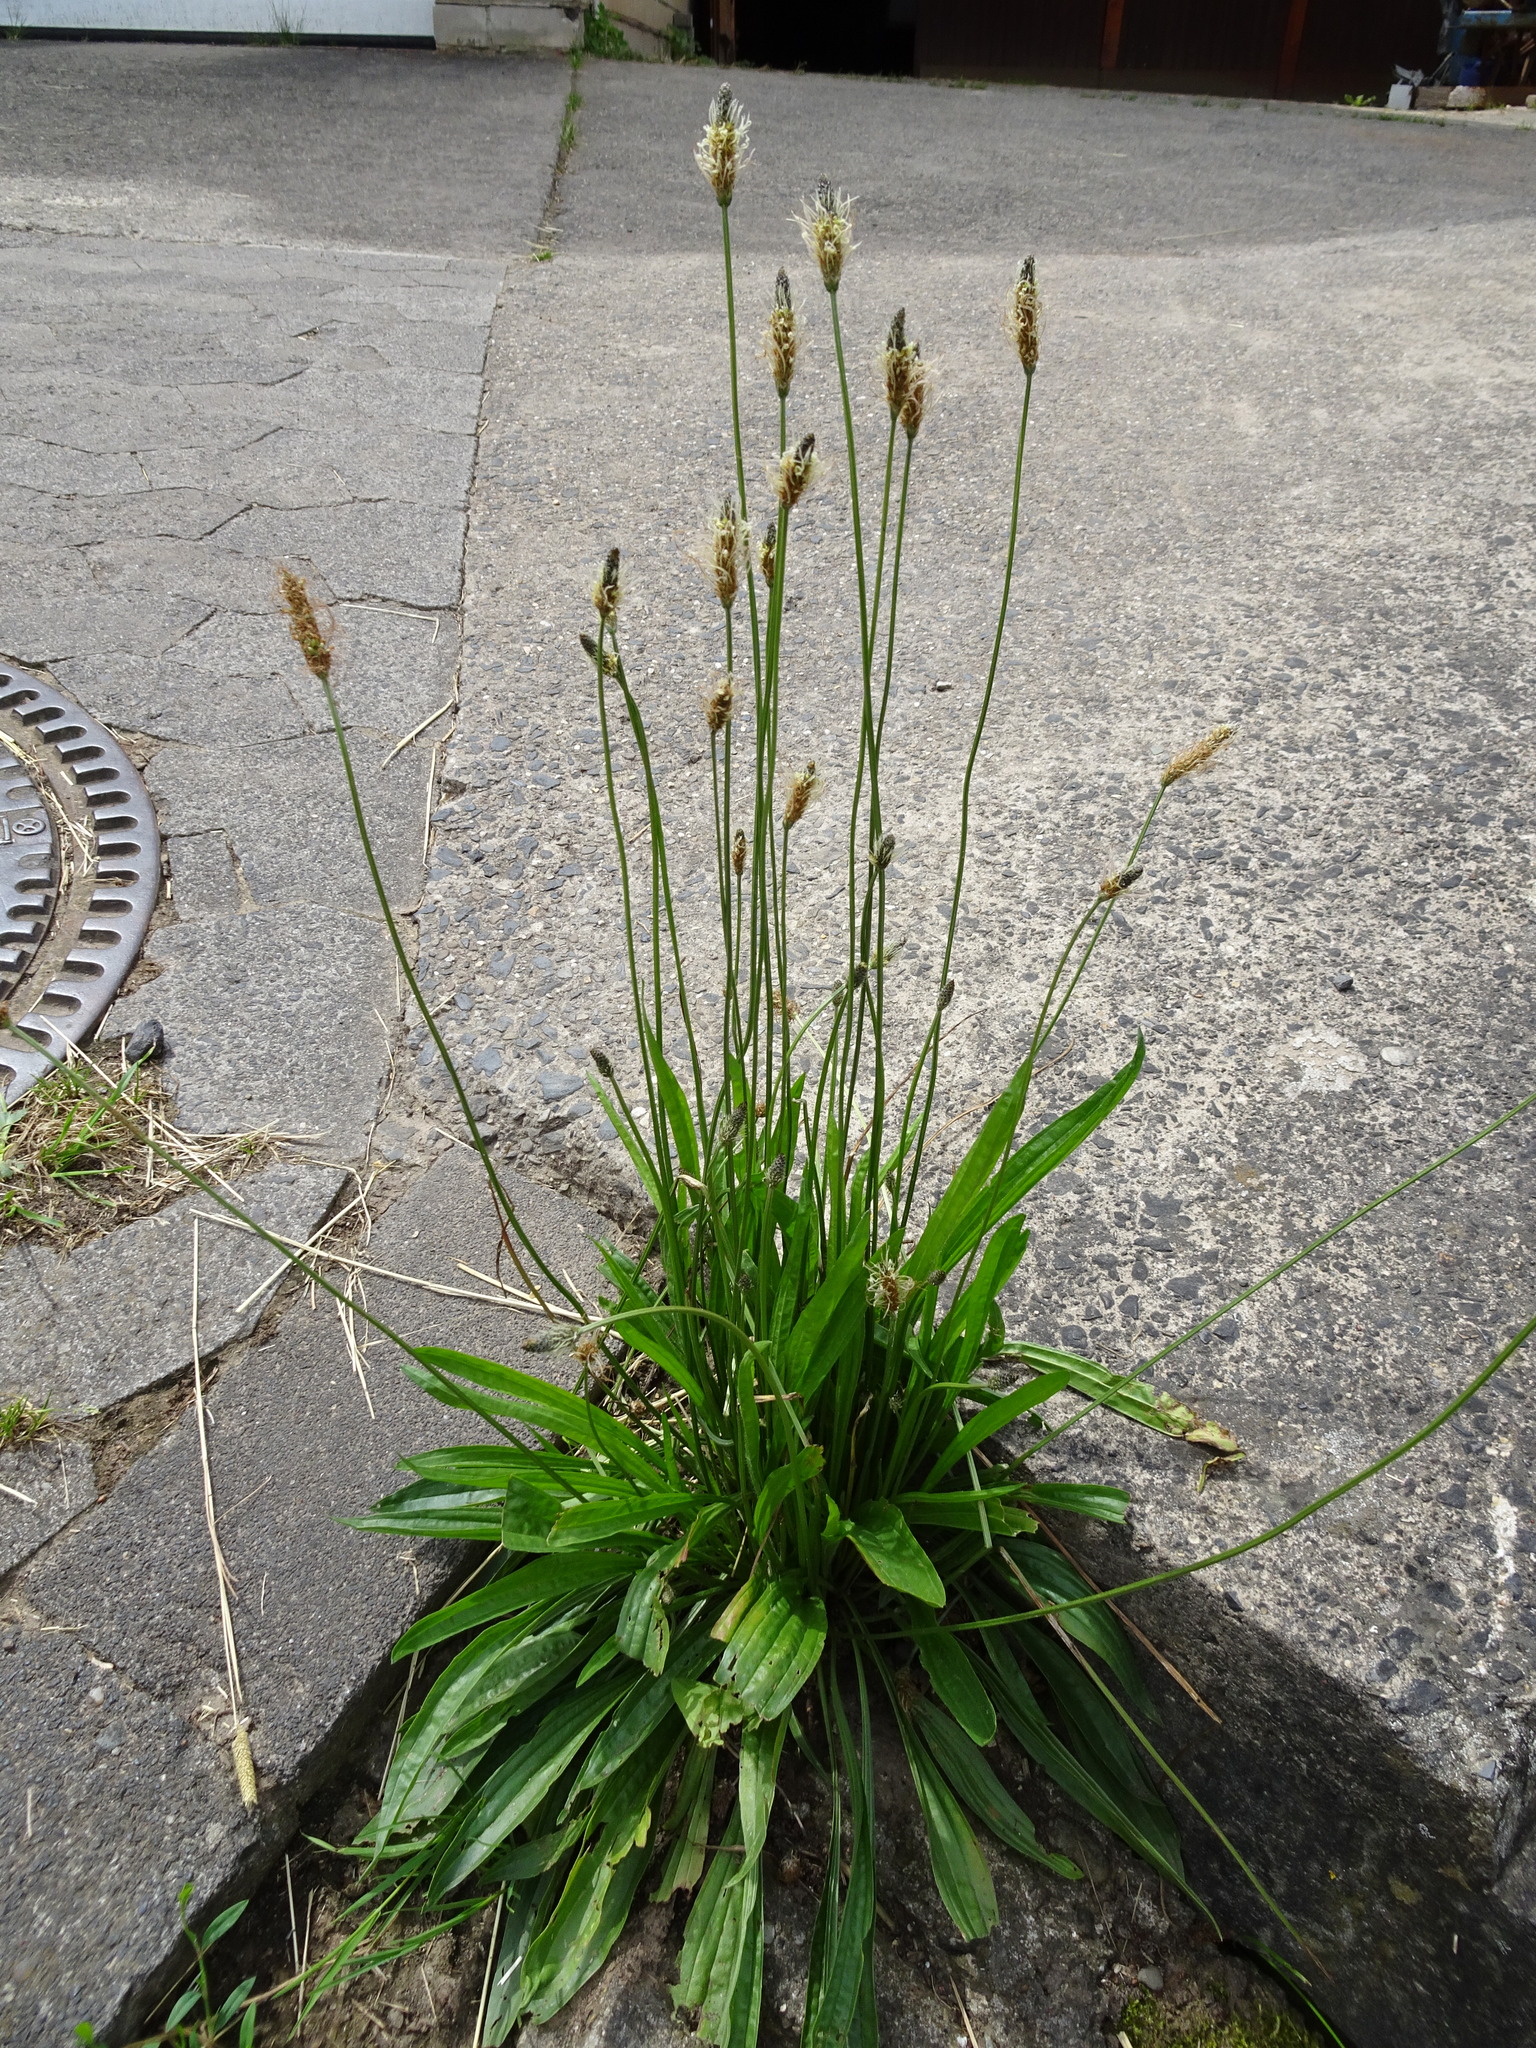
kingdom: Plantae
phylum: Tracheophyta
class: Magnoliopsida
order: Lamiales
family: Plantaginaceae
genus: Plantago
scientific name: Plantago lanceolata
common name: Ribwort plantain
